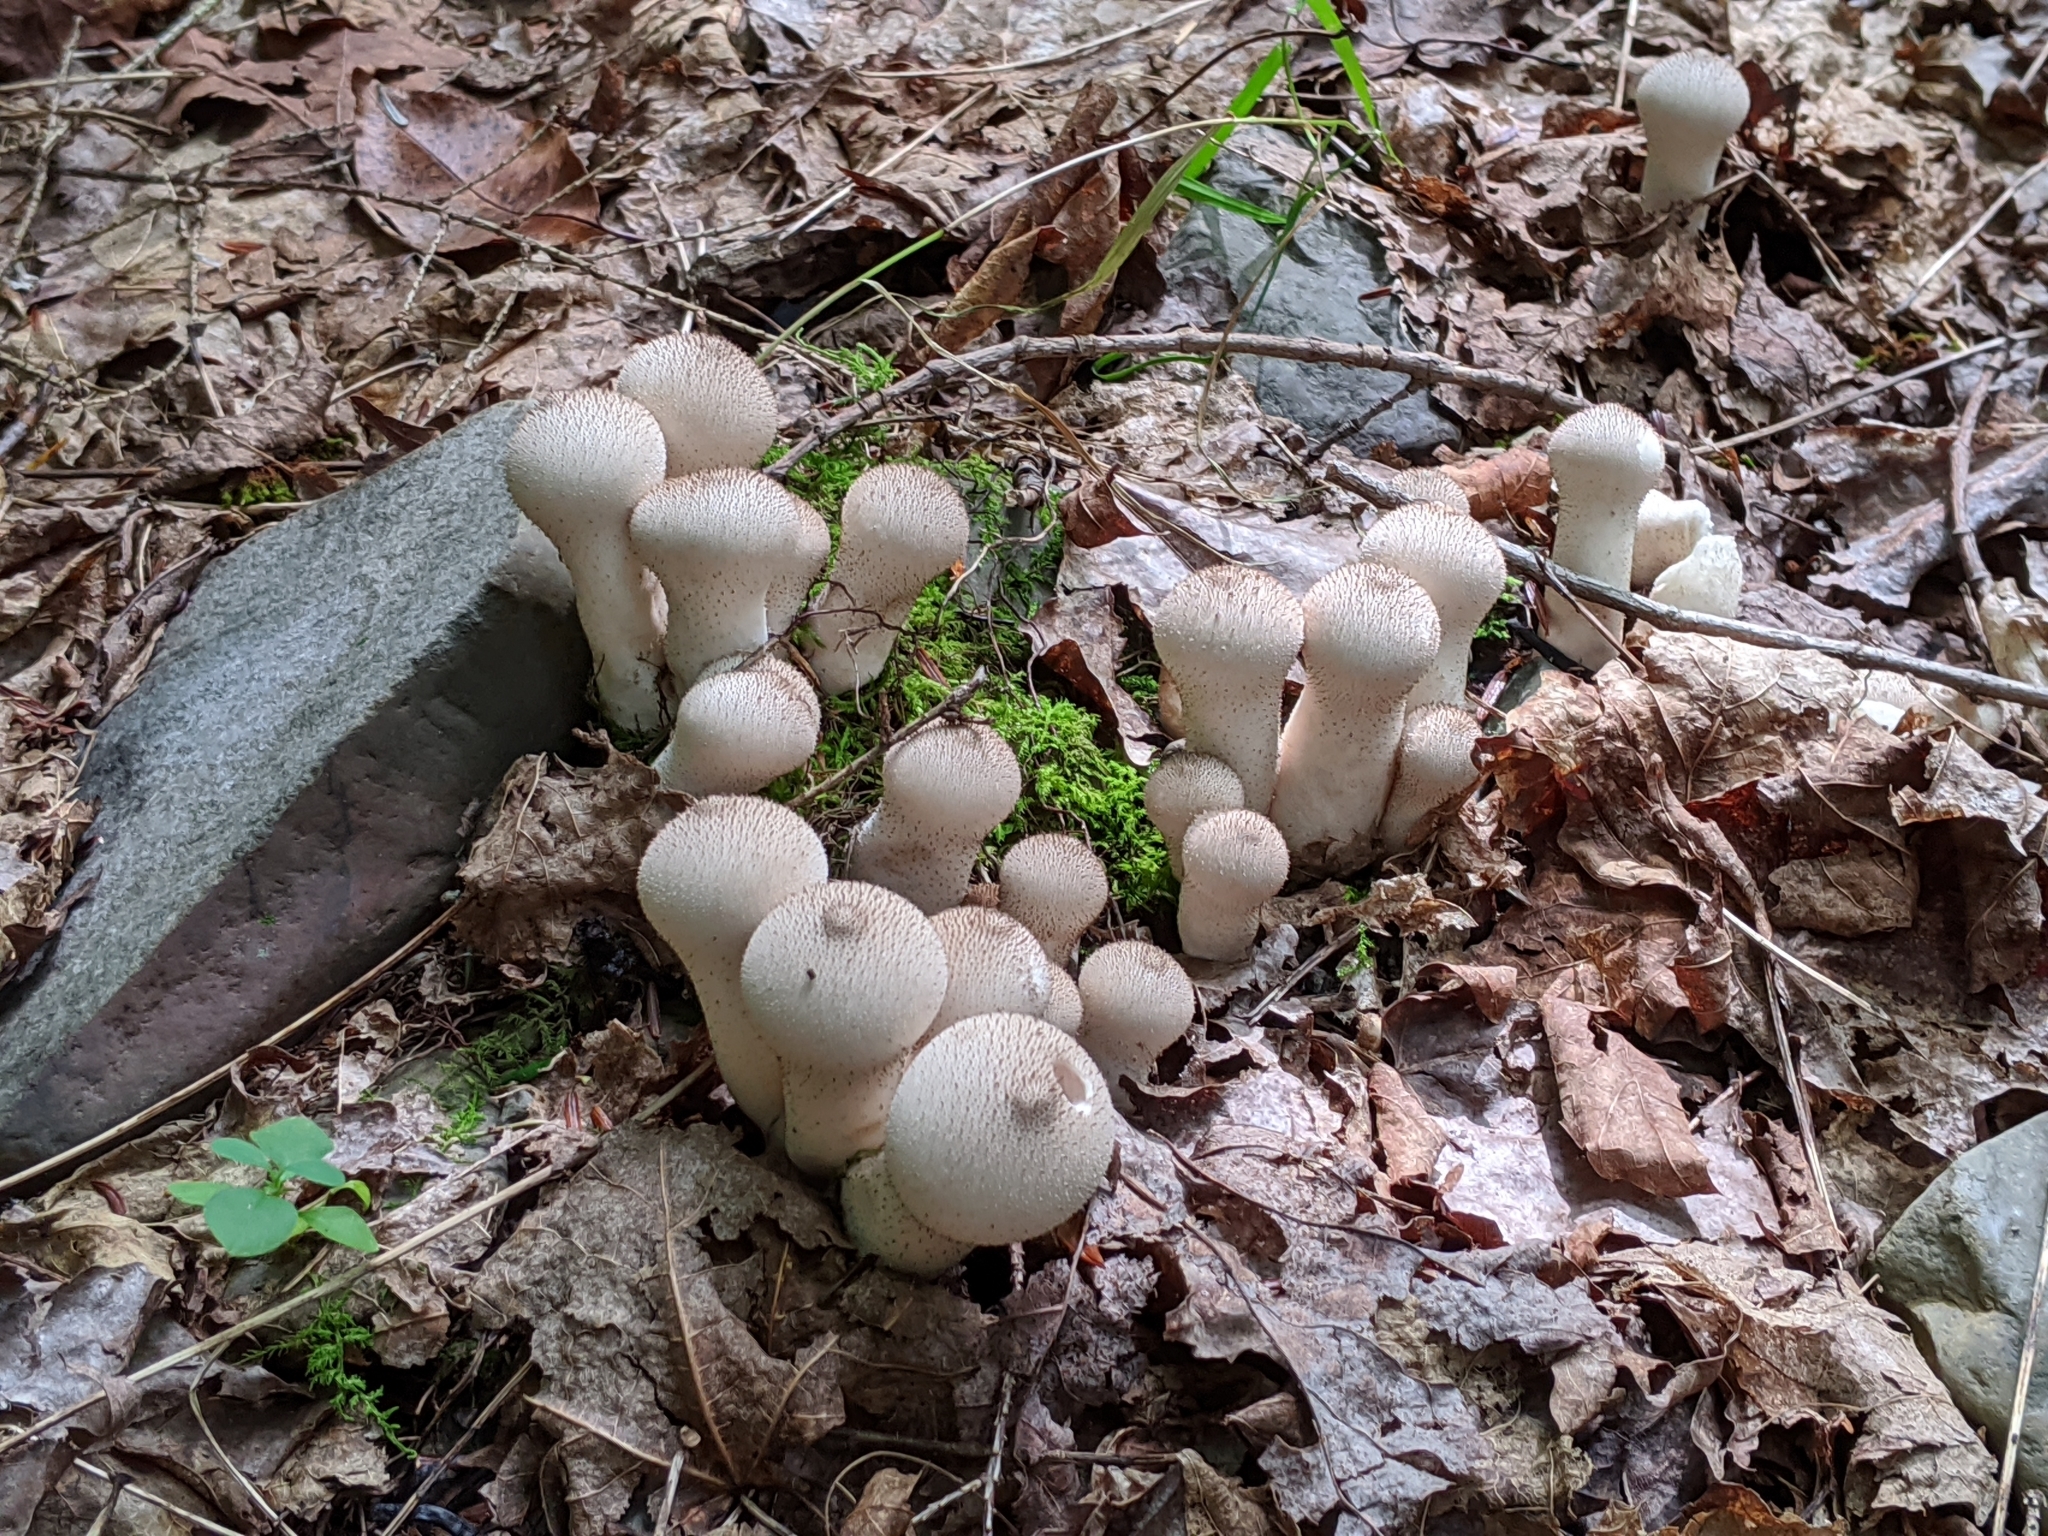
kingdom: Fungi
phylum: Basidiomycota
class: Agaricomycetes
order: Agaricales
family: Lycoperdaceae
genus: Lycoperdon
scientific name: Lycoperdon perlatum
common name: Common puffball
